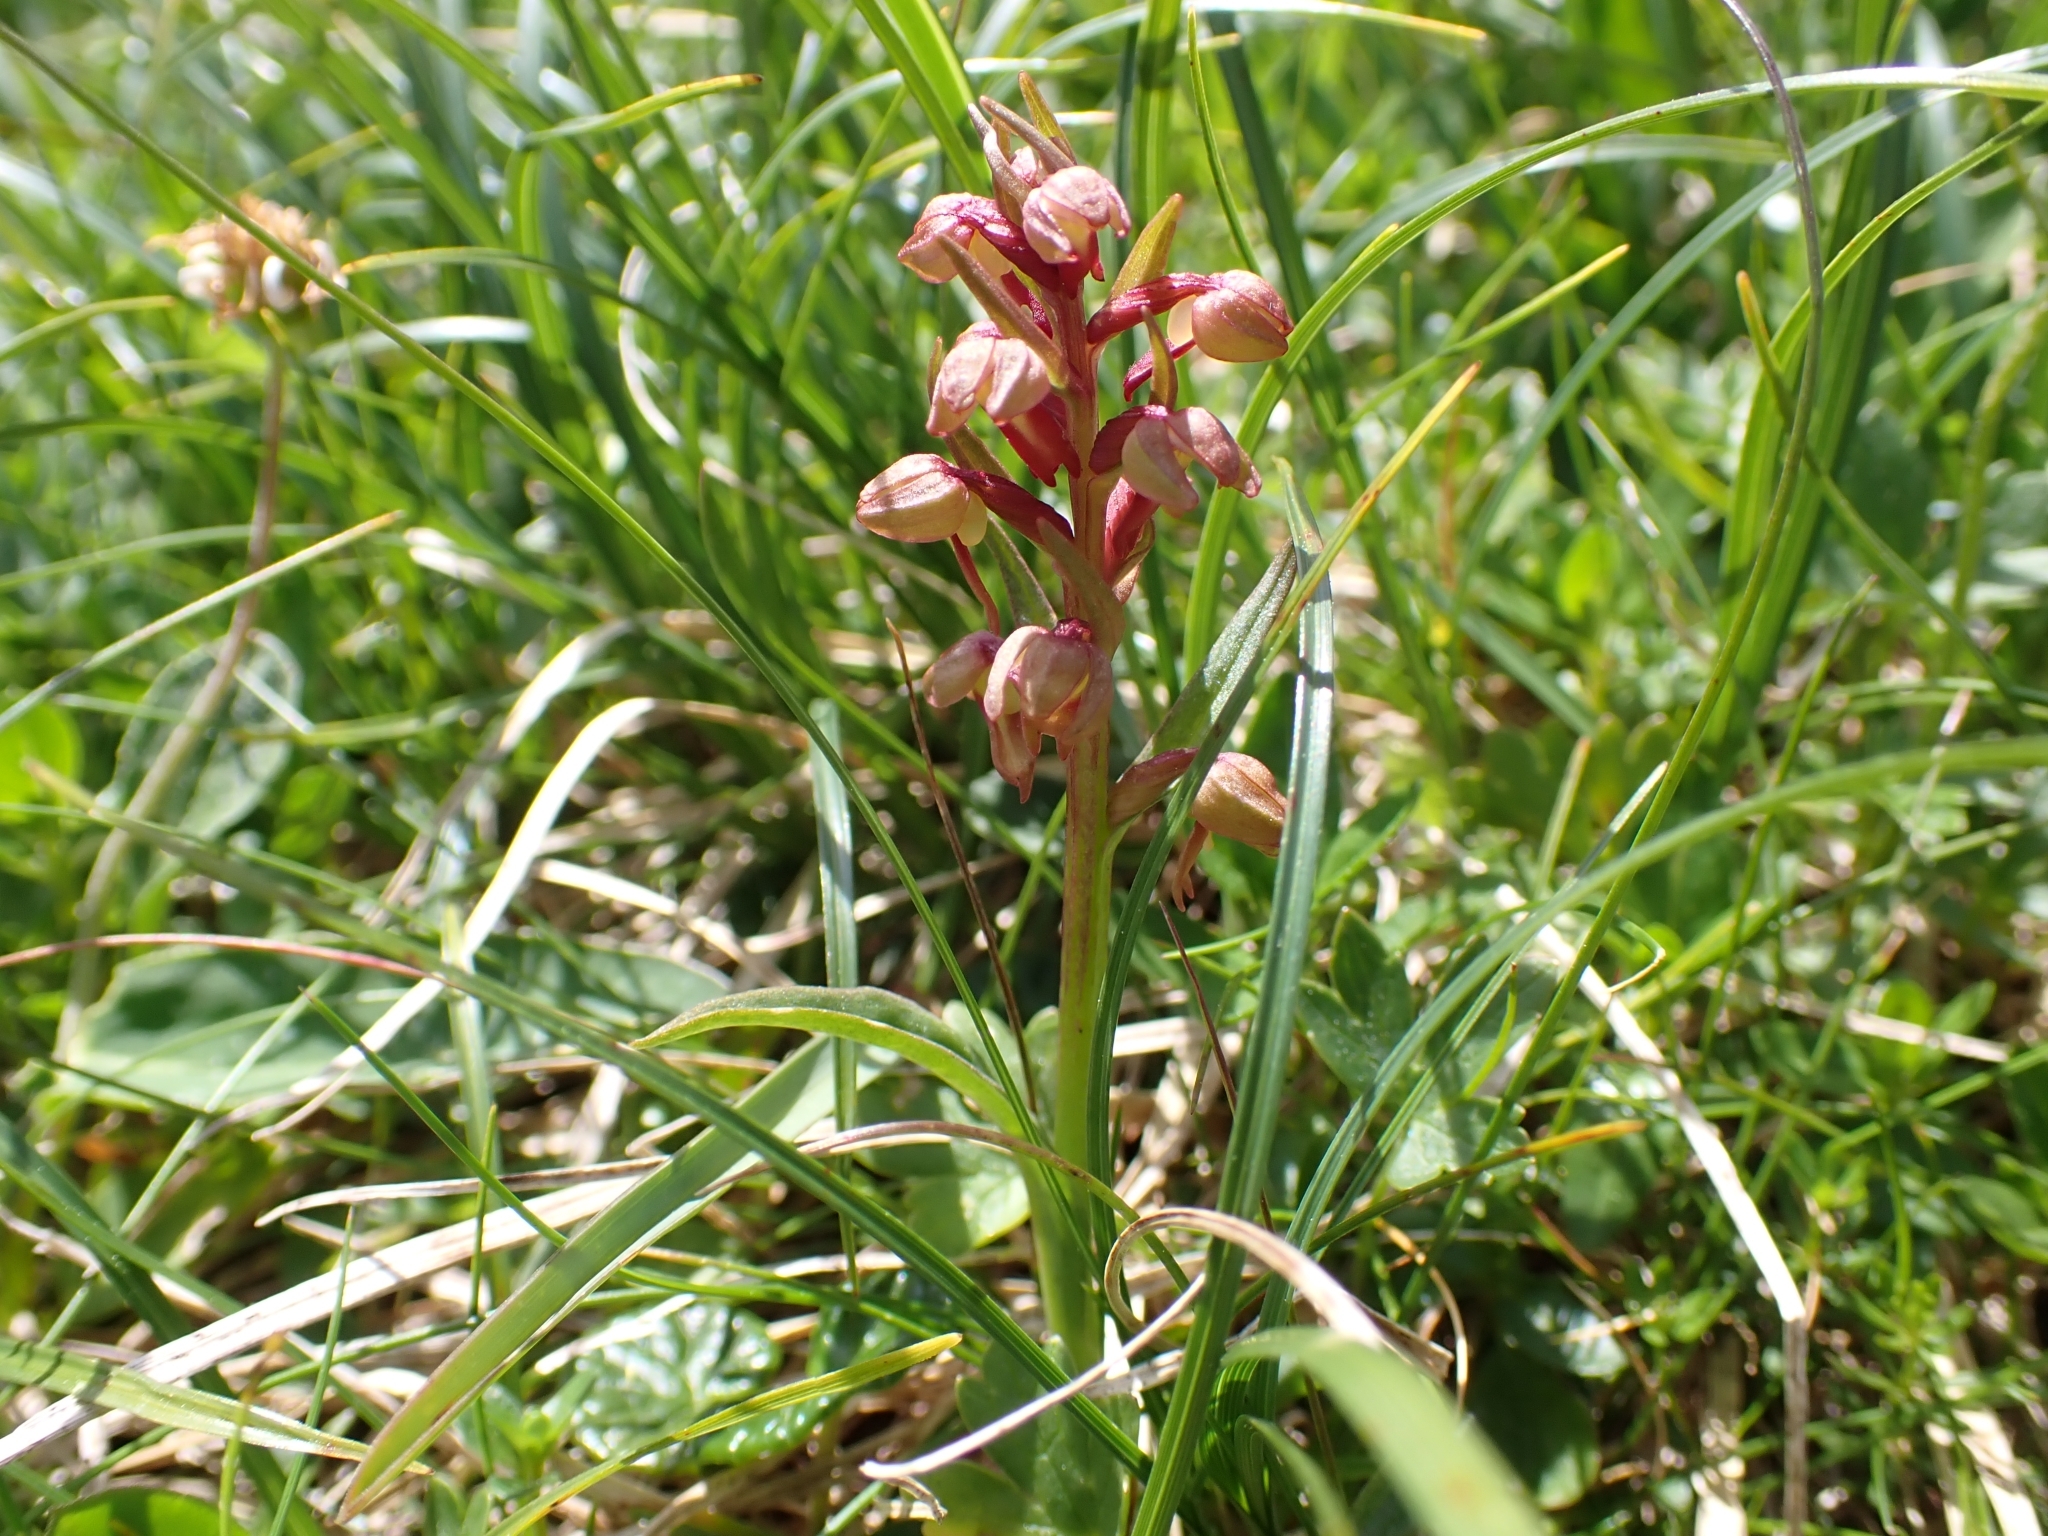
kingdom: Plantae
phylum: Tracheophyta
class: Liliopsida
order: Asparagales
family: Orchidaceae
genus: Dactylorhiza
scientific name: Dactylorhiza viridis
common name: Longbract frog orchid
